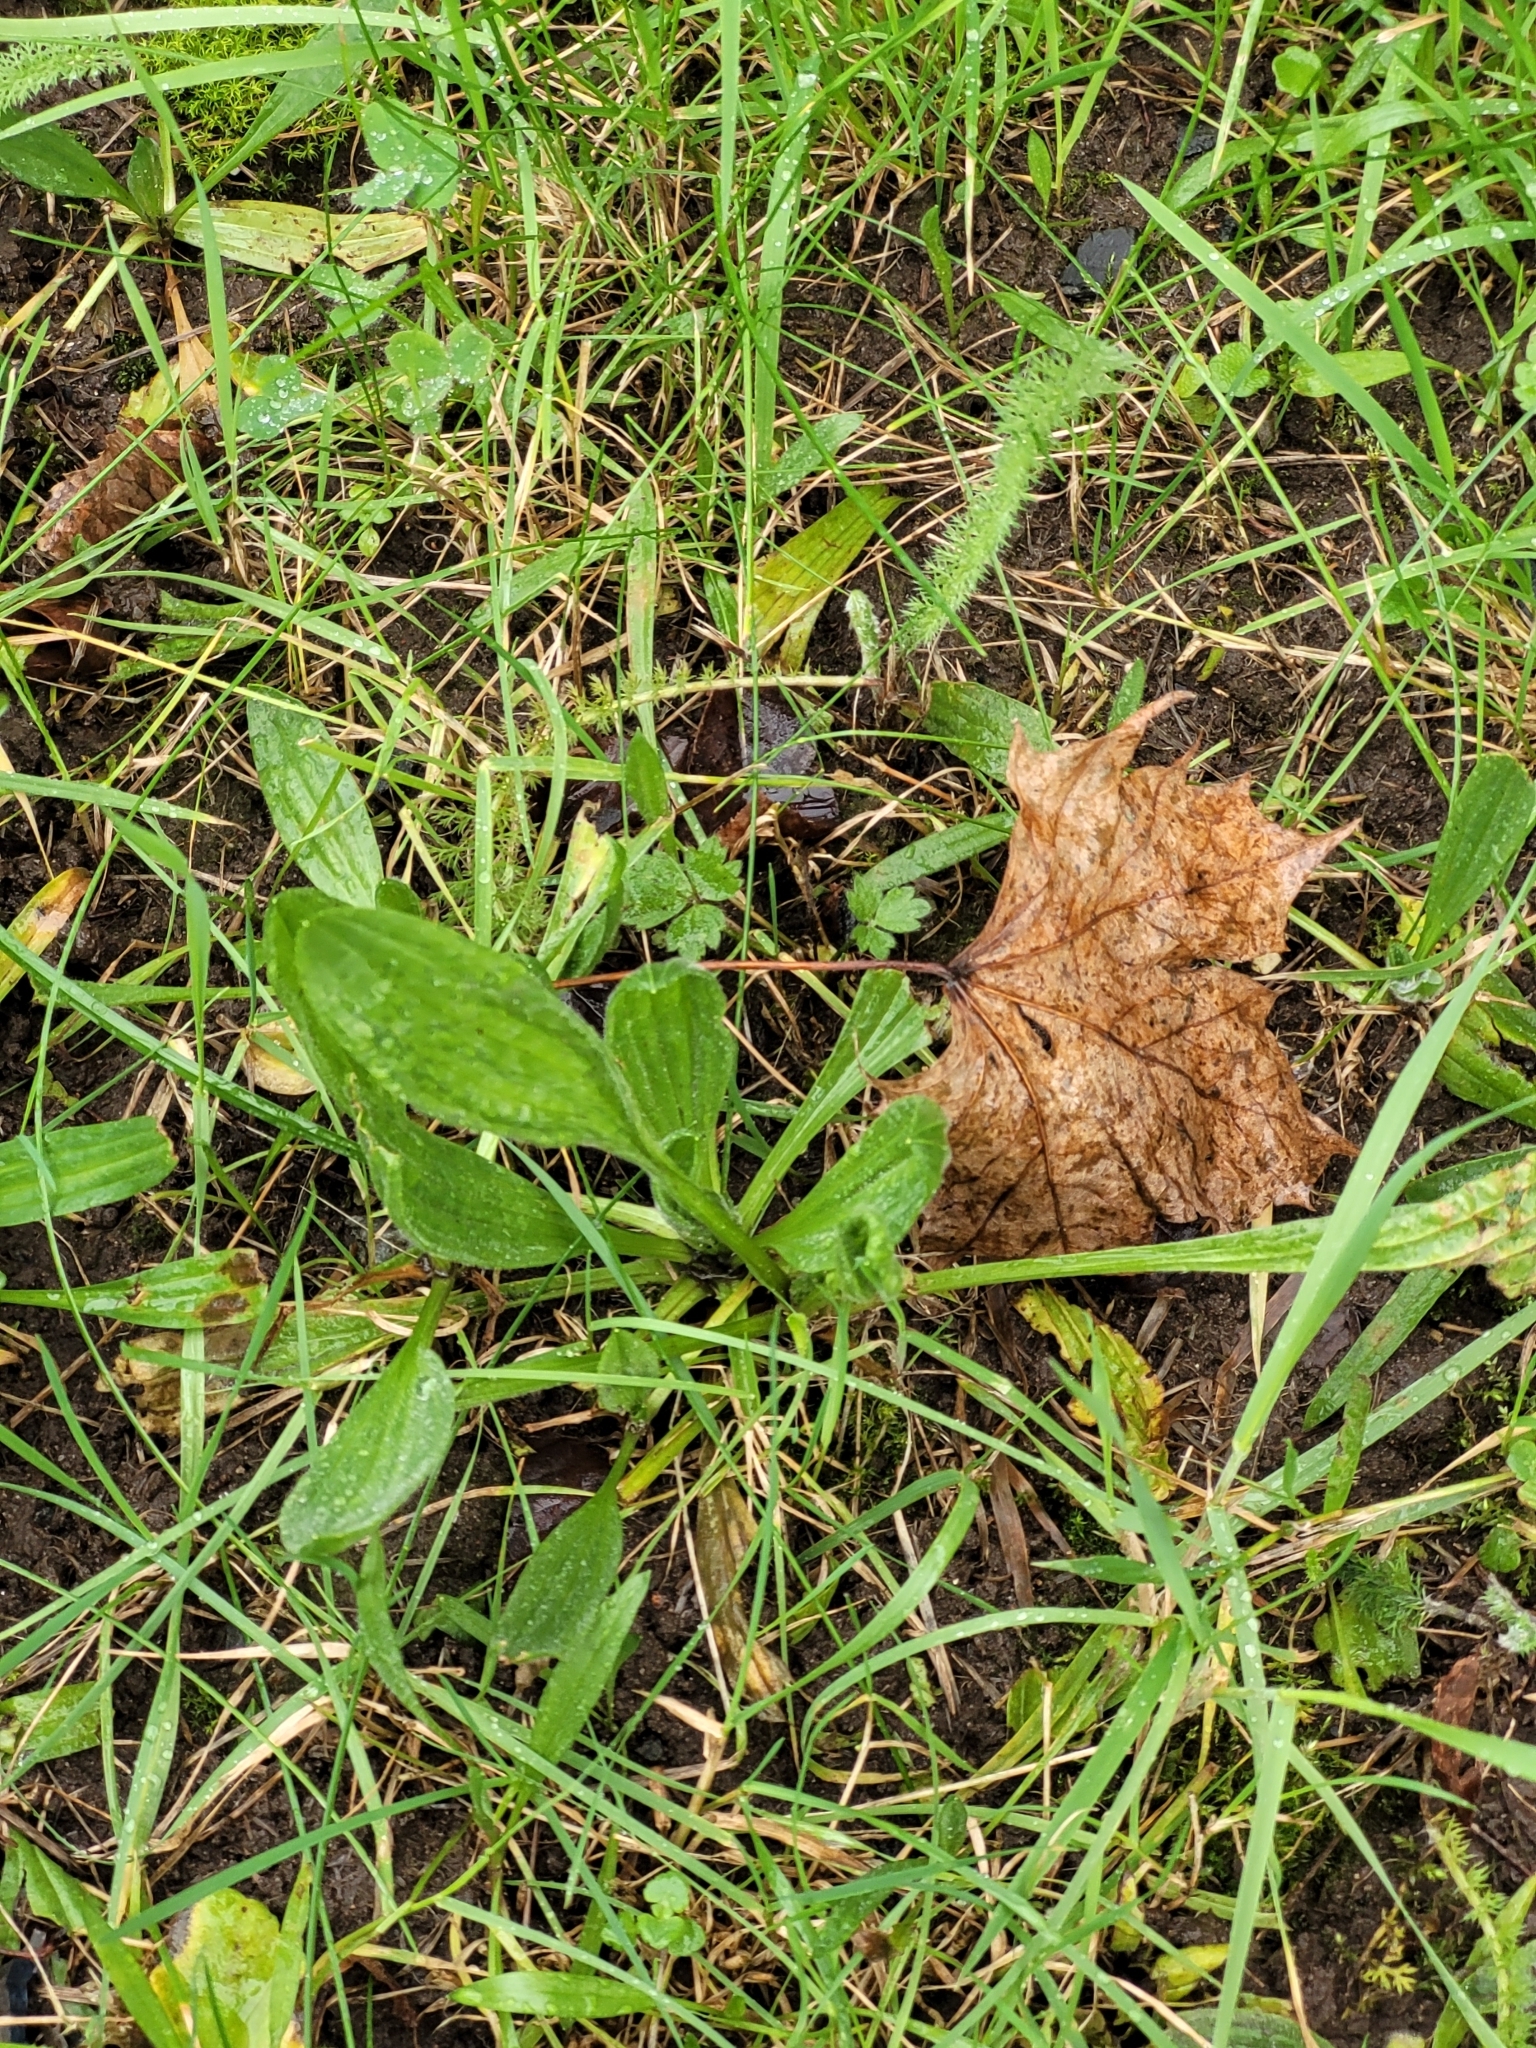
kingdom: Plantae
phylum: Tracheophyta
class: Magnoliopsida
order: Lamiales
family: Plantaginaceae
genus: Plantago
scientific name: Plantago lanceolata
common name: Ribwort plantain
